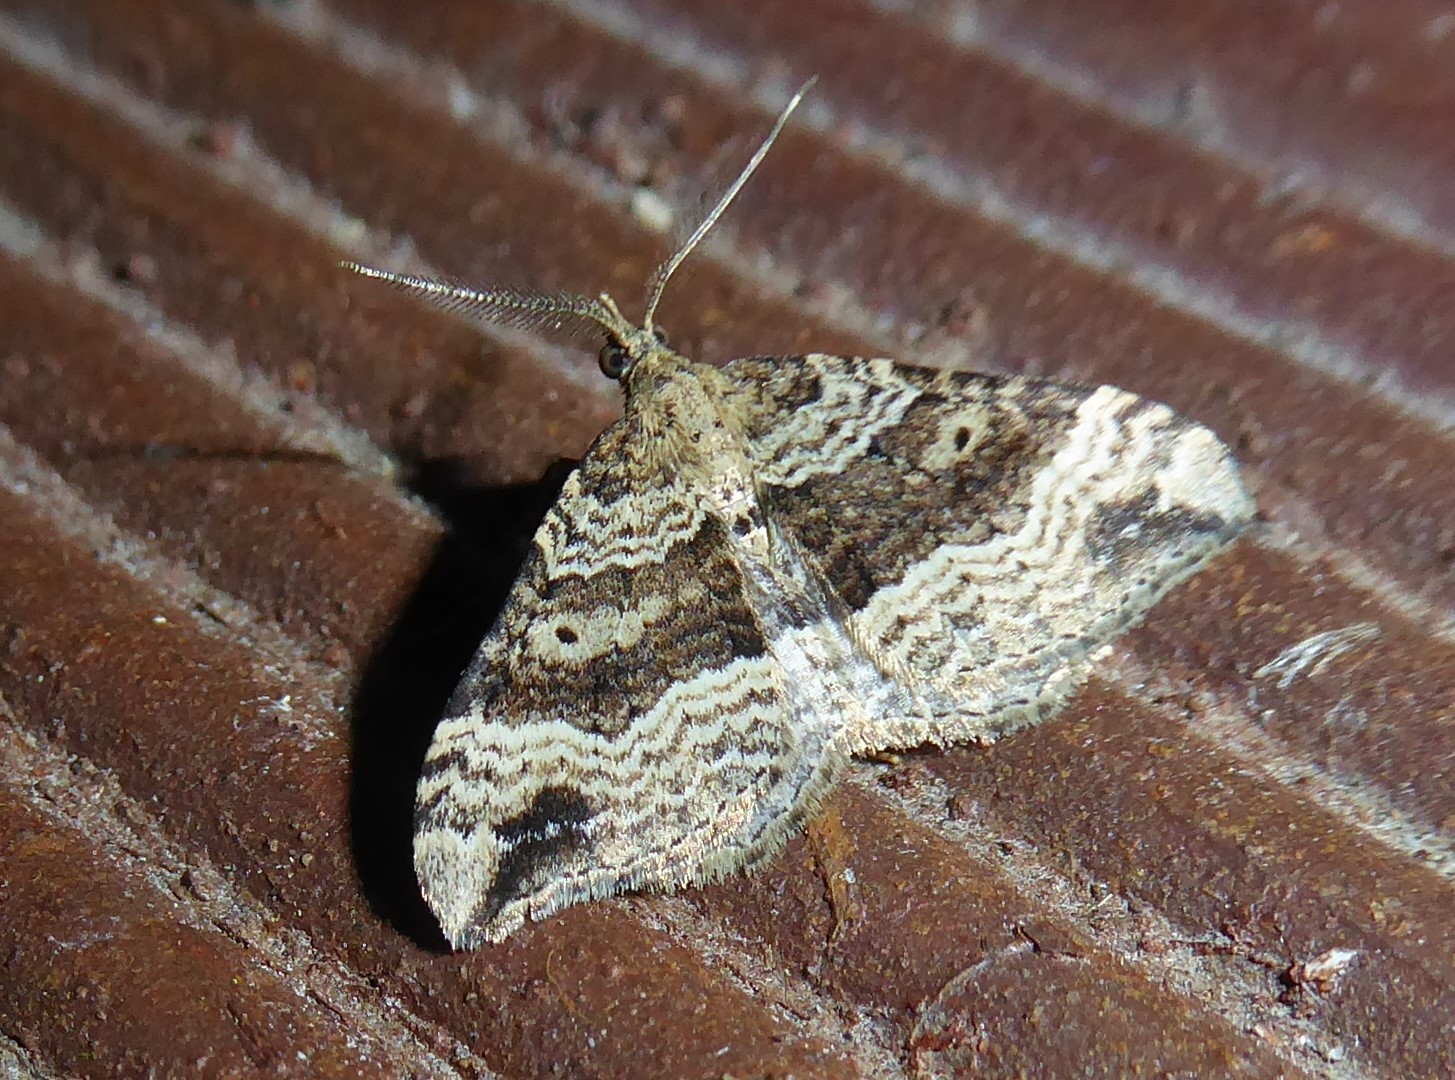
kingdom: Animalia
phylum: Arthropoda
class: Insecta
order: Lepidoptera
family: Geometridae
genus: Homodotis
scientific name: Homodotis falcata
